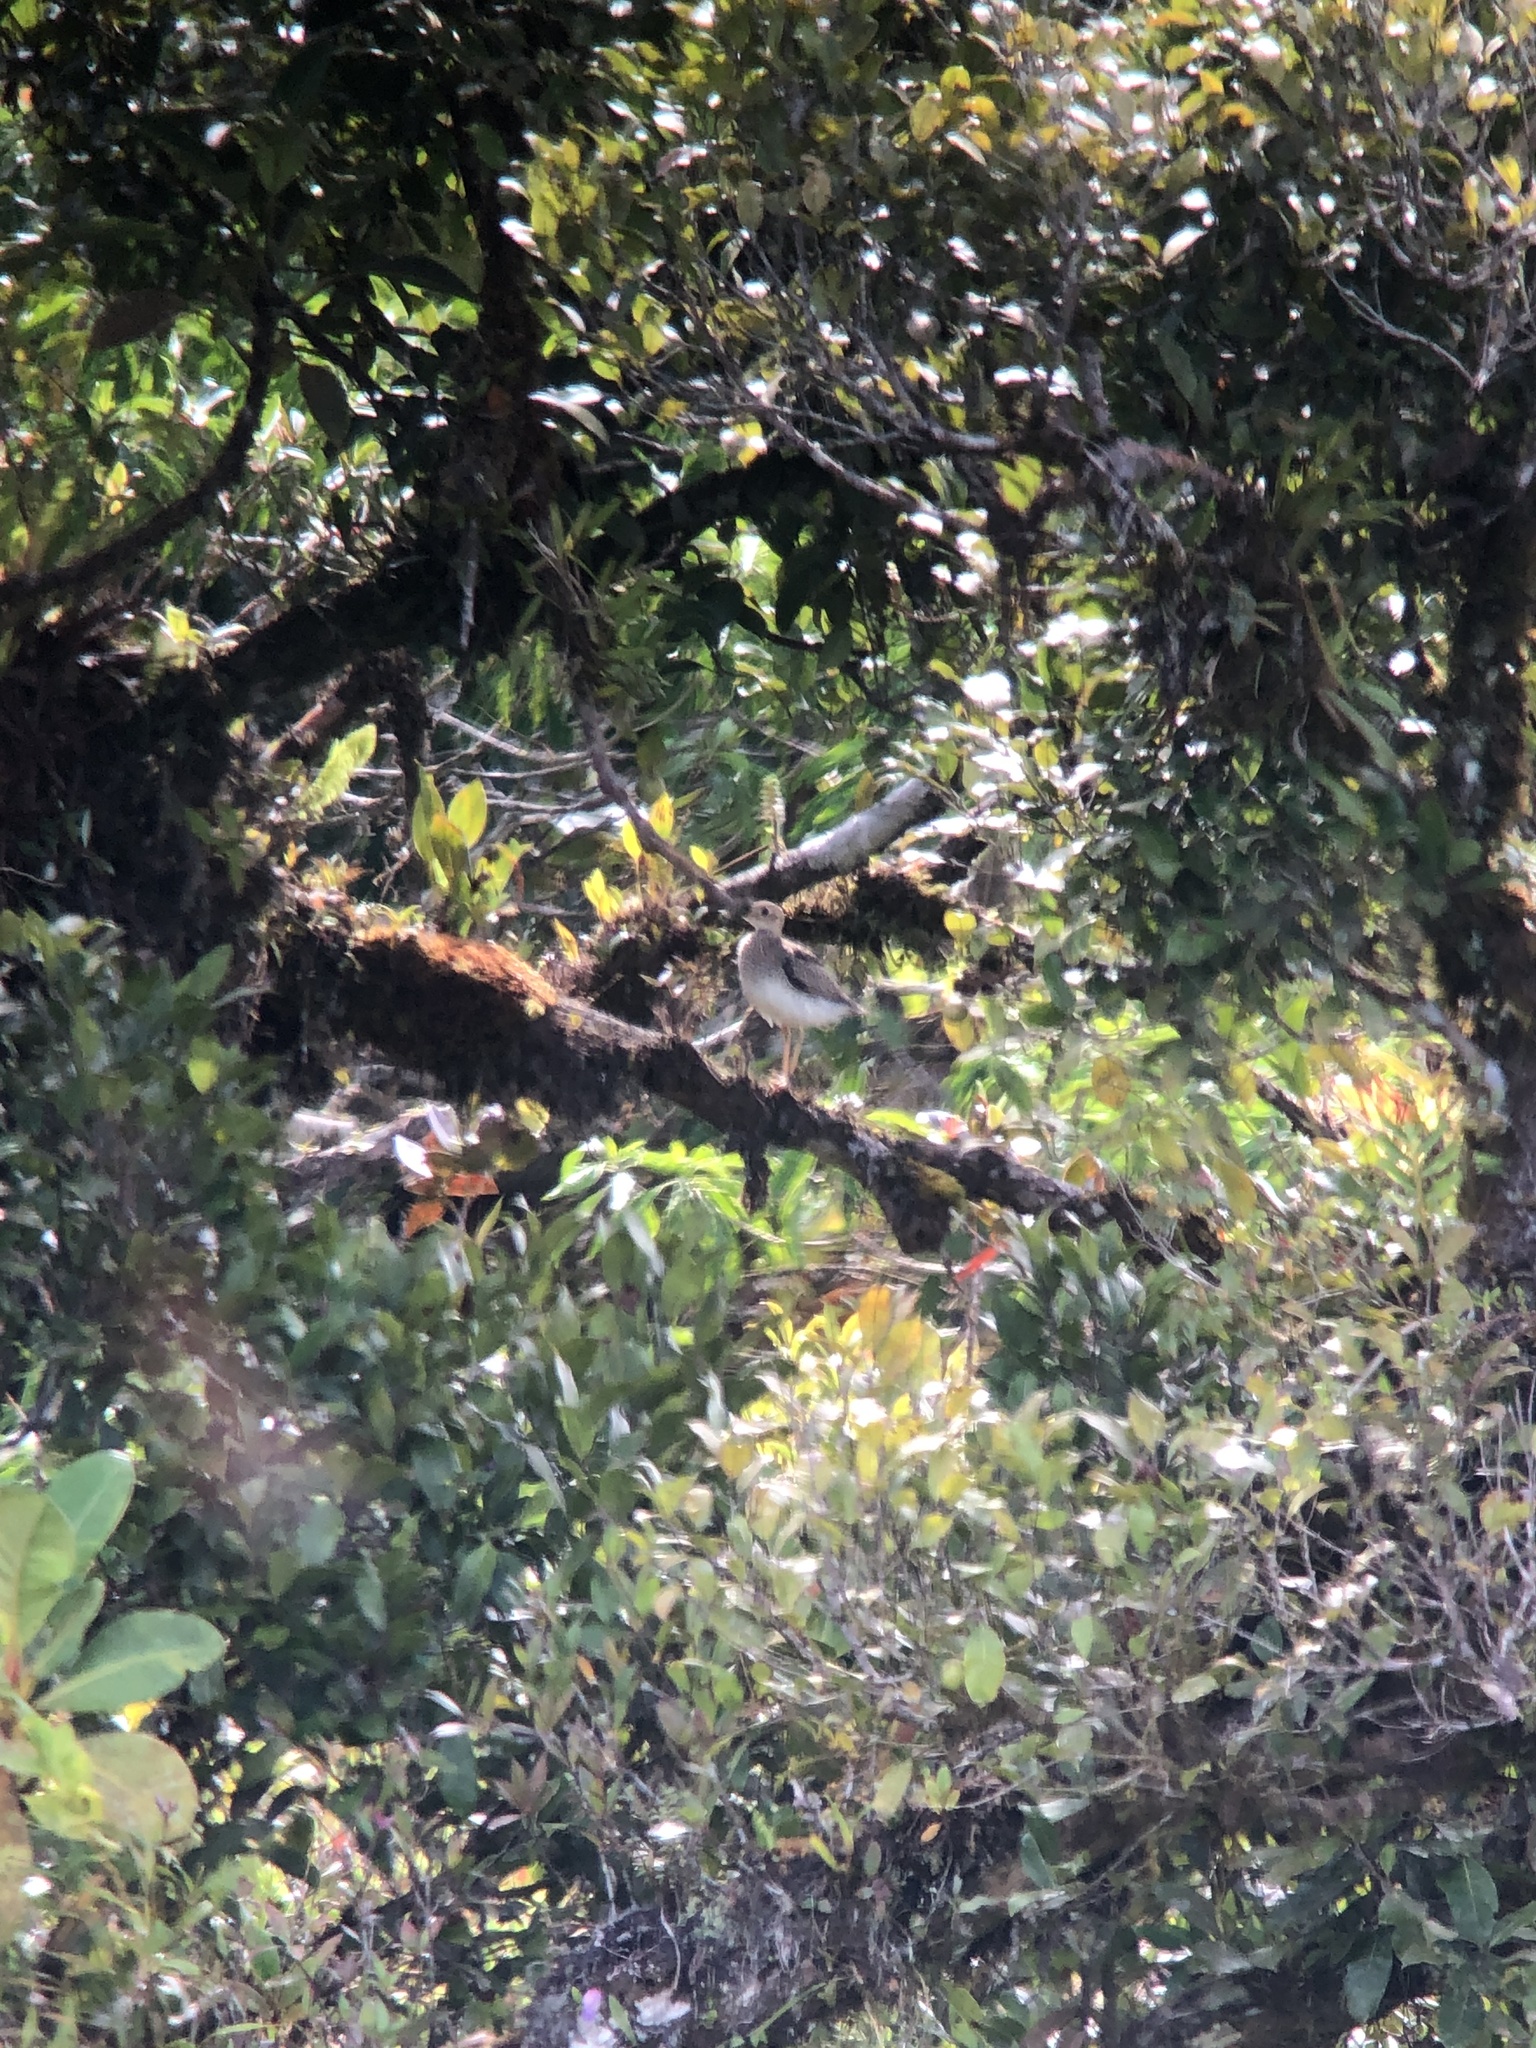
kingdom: Animalia
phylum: Chordata
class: Aves
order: Charadriiformes
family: Scolopacidae
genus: Bartramia
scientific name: Bartramia longicauda
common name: Upland sandpiper
